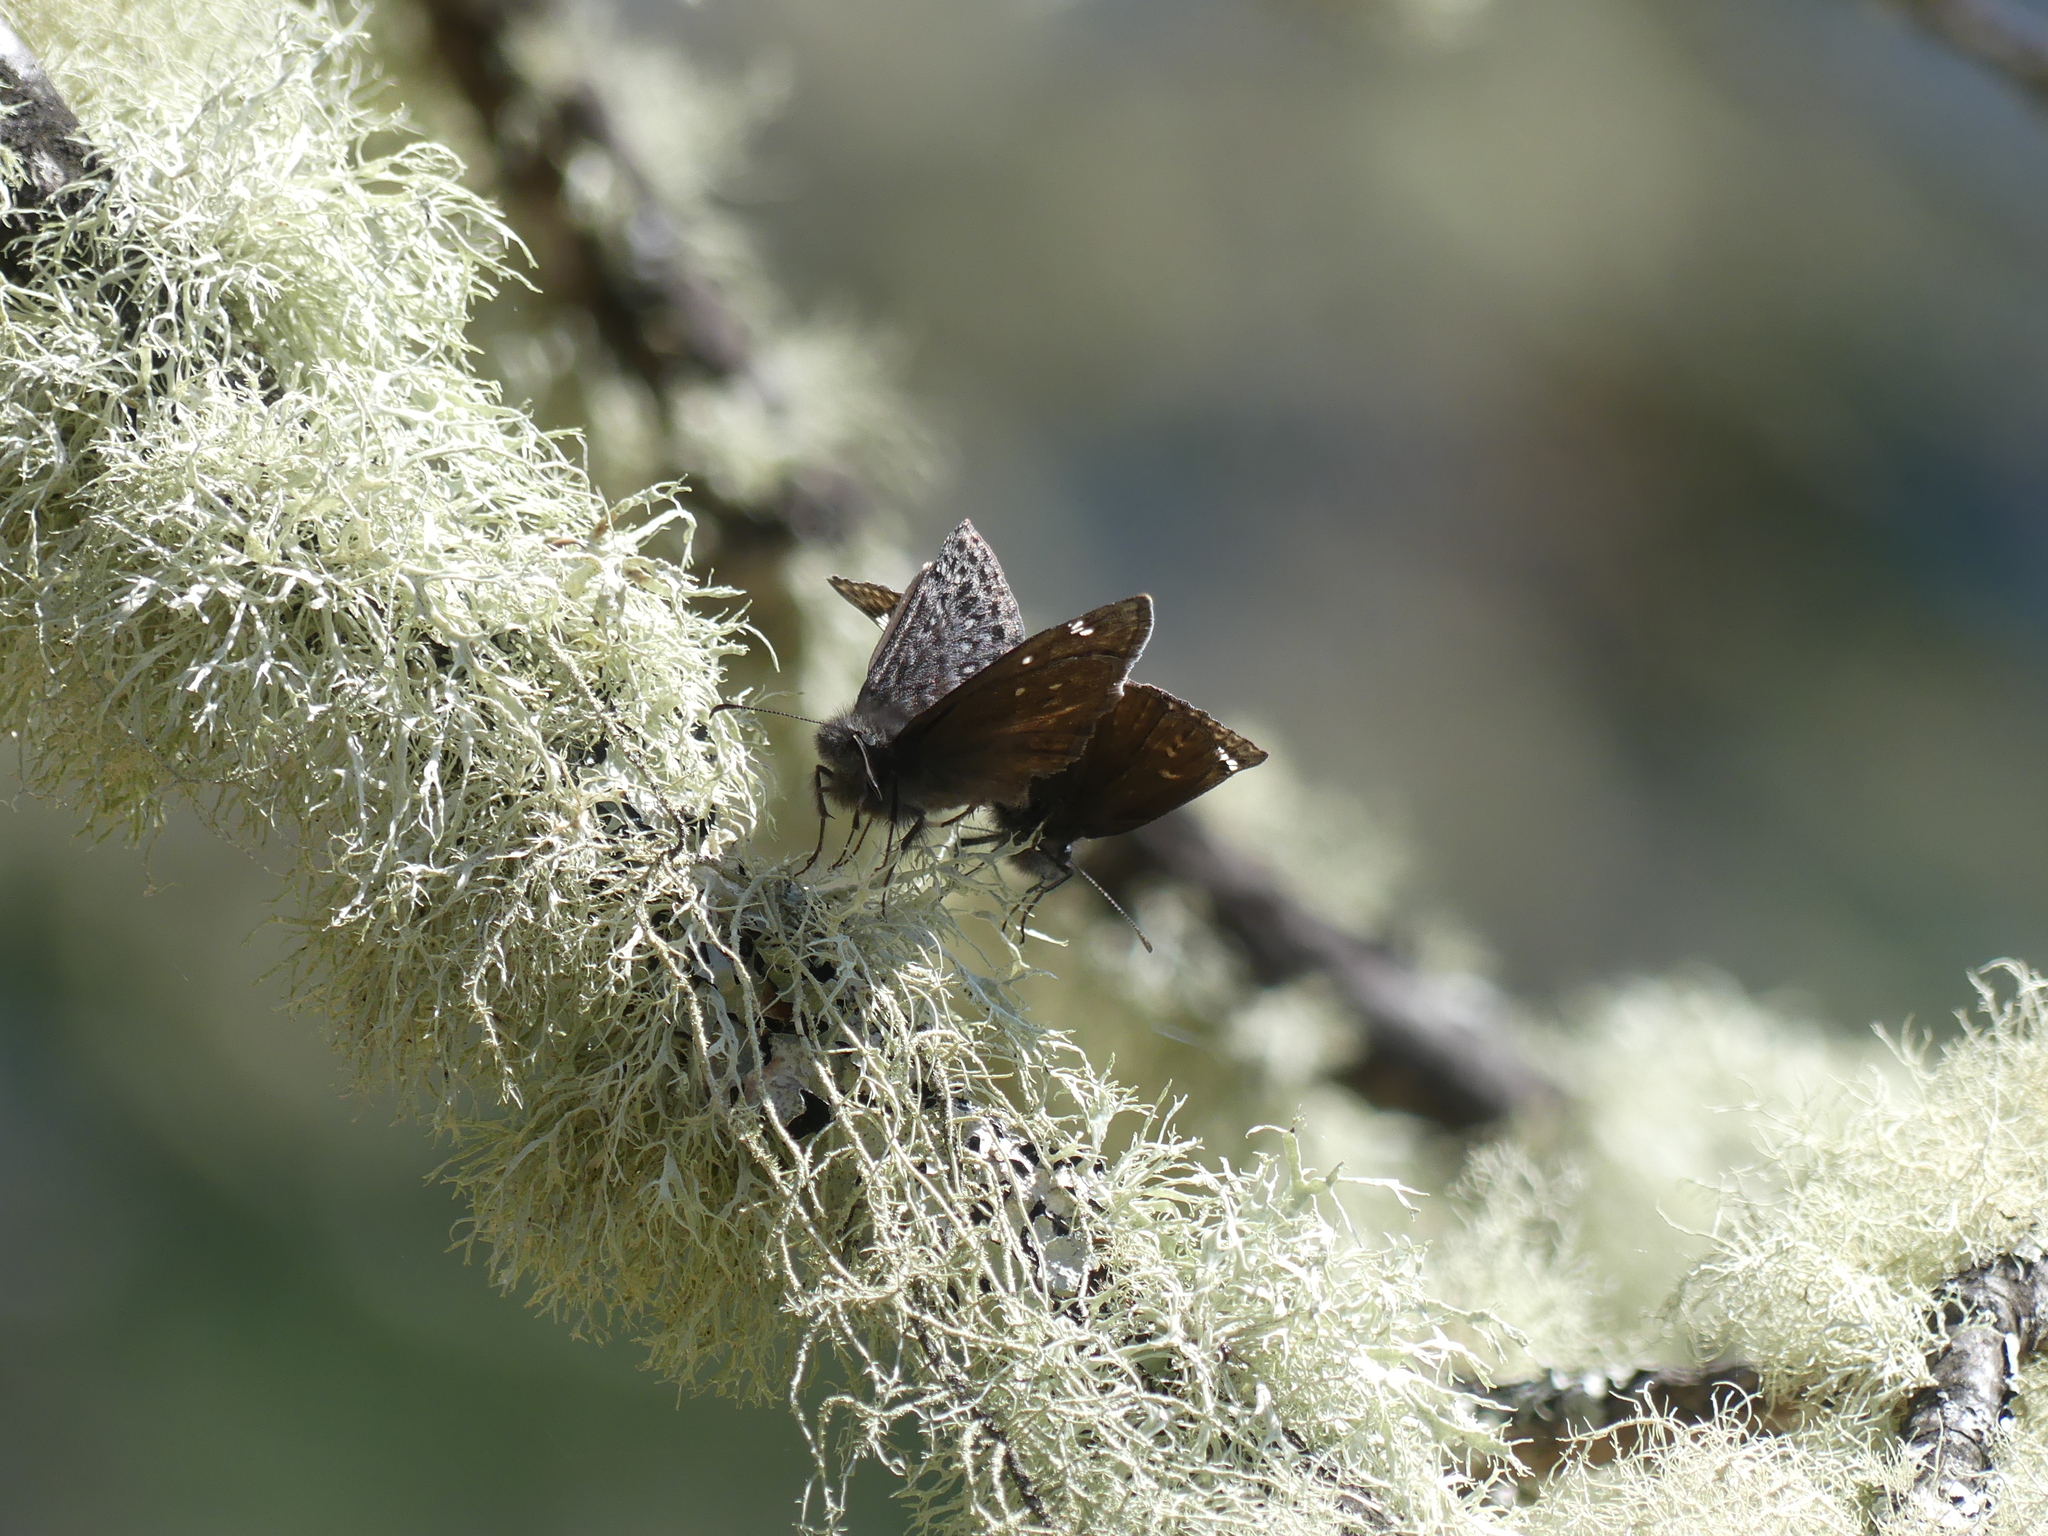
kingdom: Animalia
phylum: Arthropoda
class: Insecta
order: Lepidoptera
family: Hesperiidae
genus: Erynnis
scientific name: Erynnis propertius
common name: Propertius duskywing
